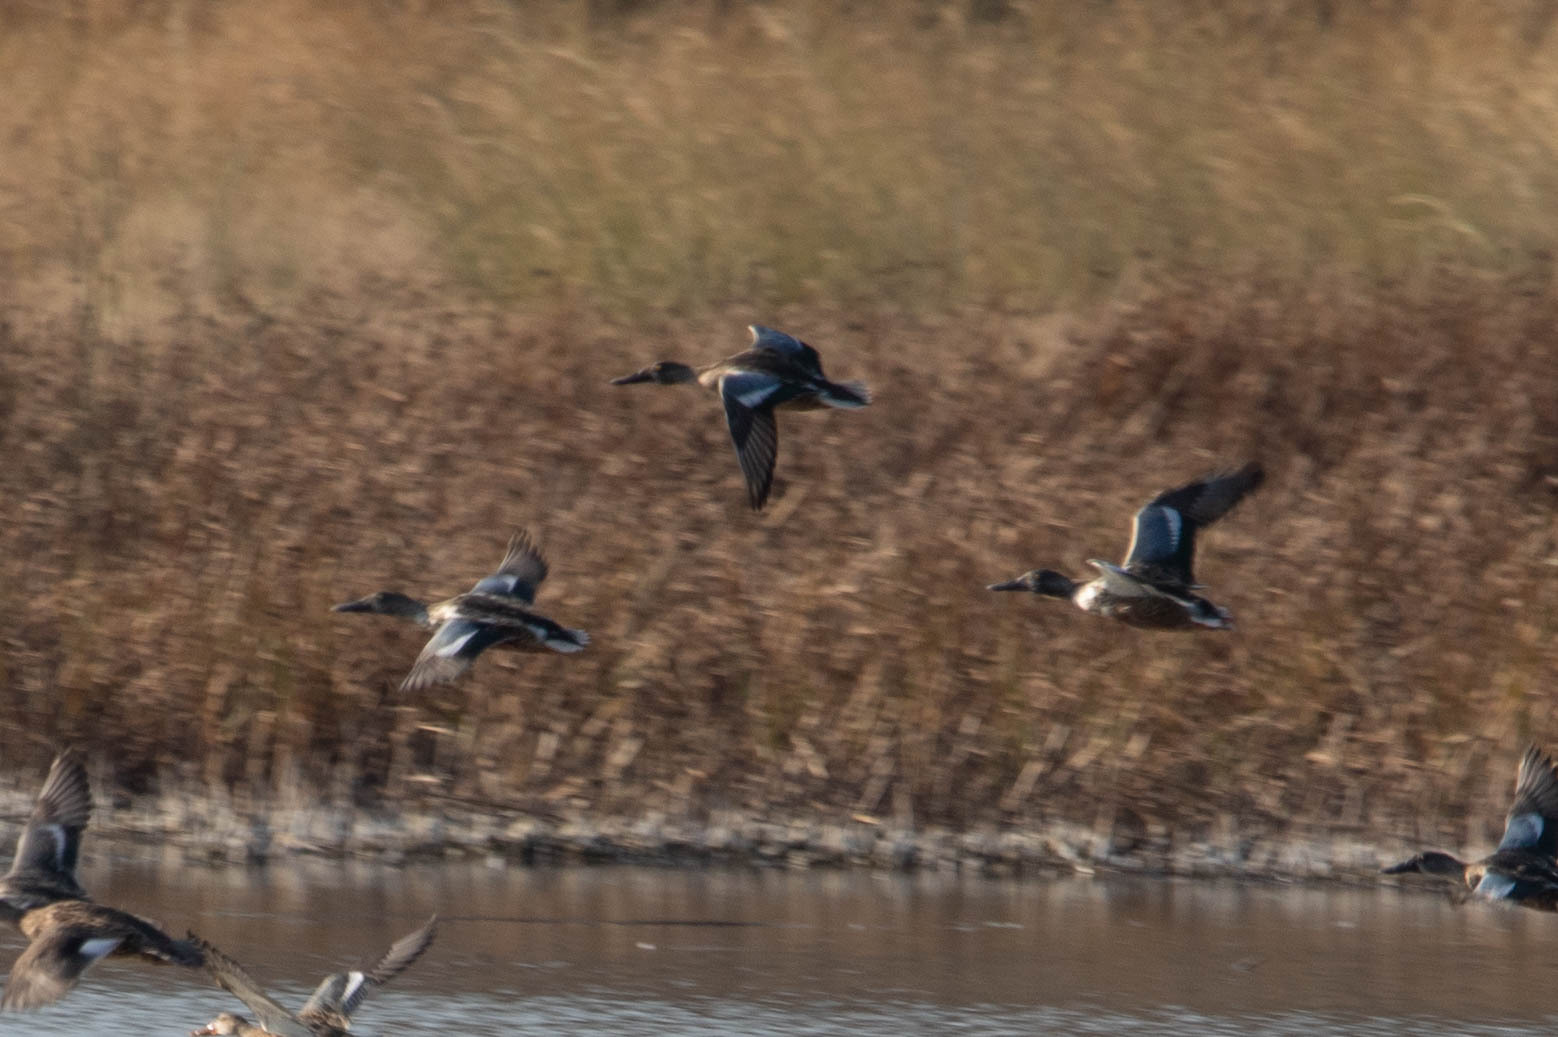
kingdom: Animalia
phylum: Chordata
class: Aves
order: Anseriformes
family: Anatidae
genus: Spatula
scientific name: Spatula clypeata
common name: Northern shoveler
